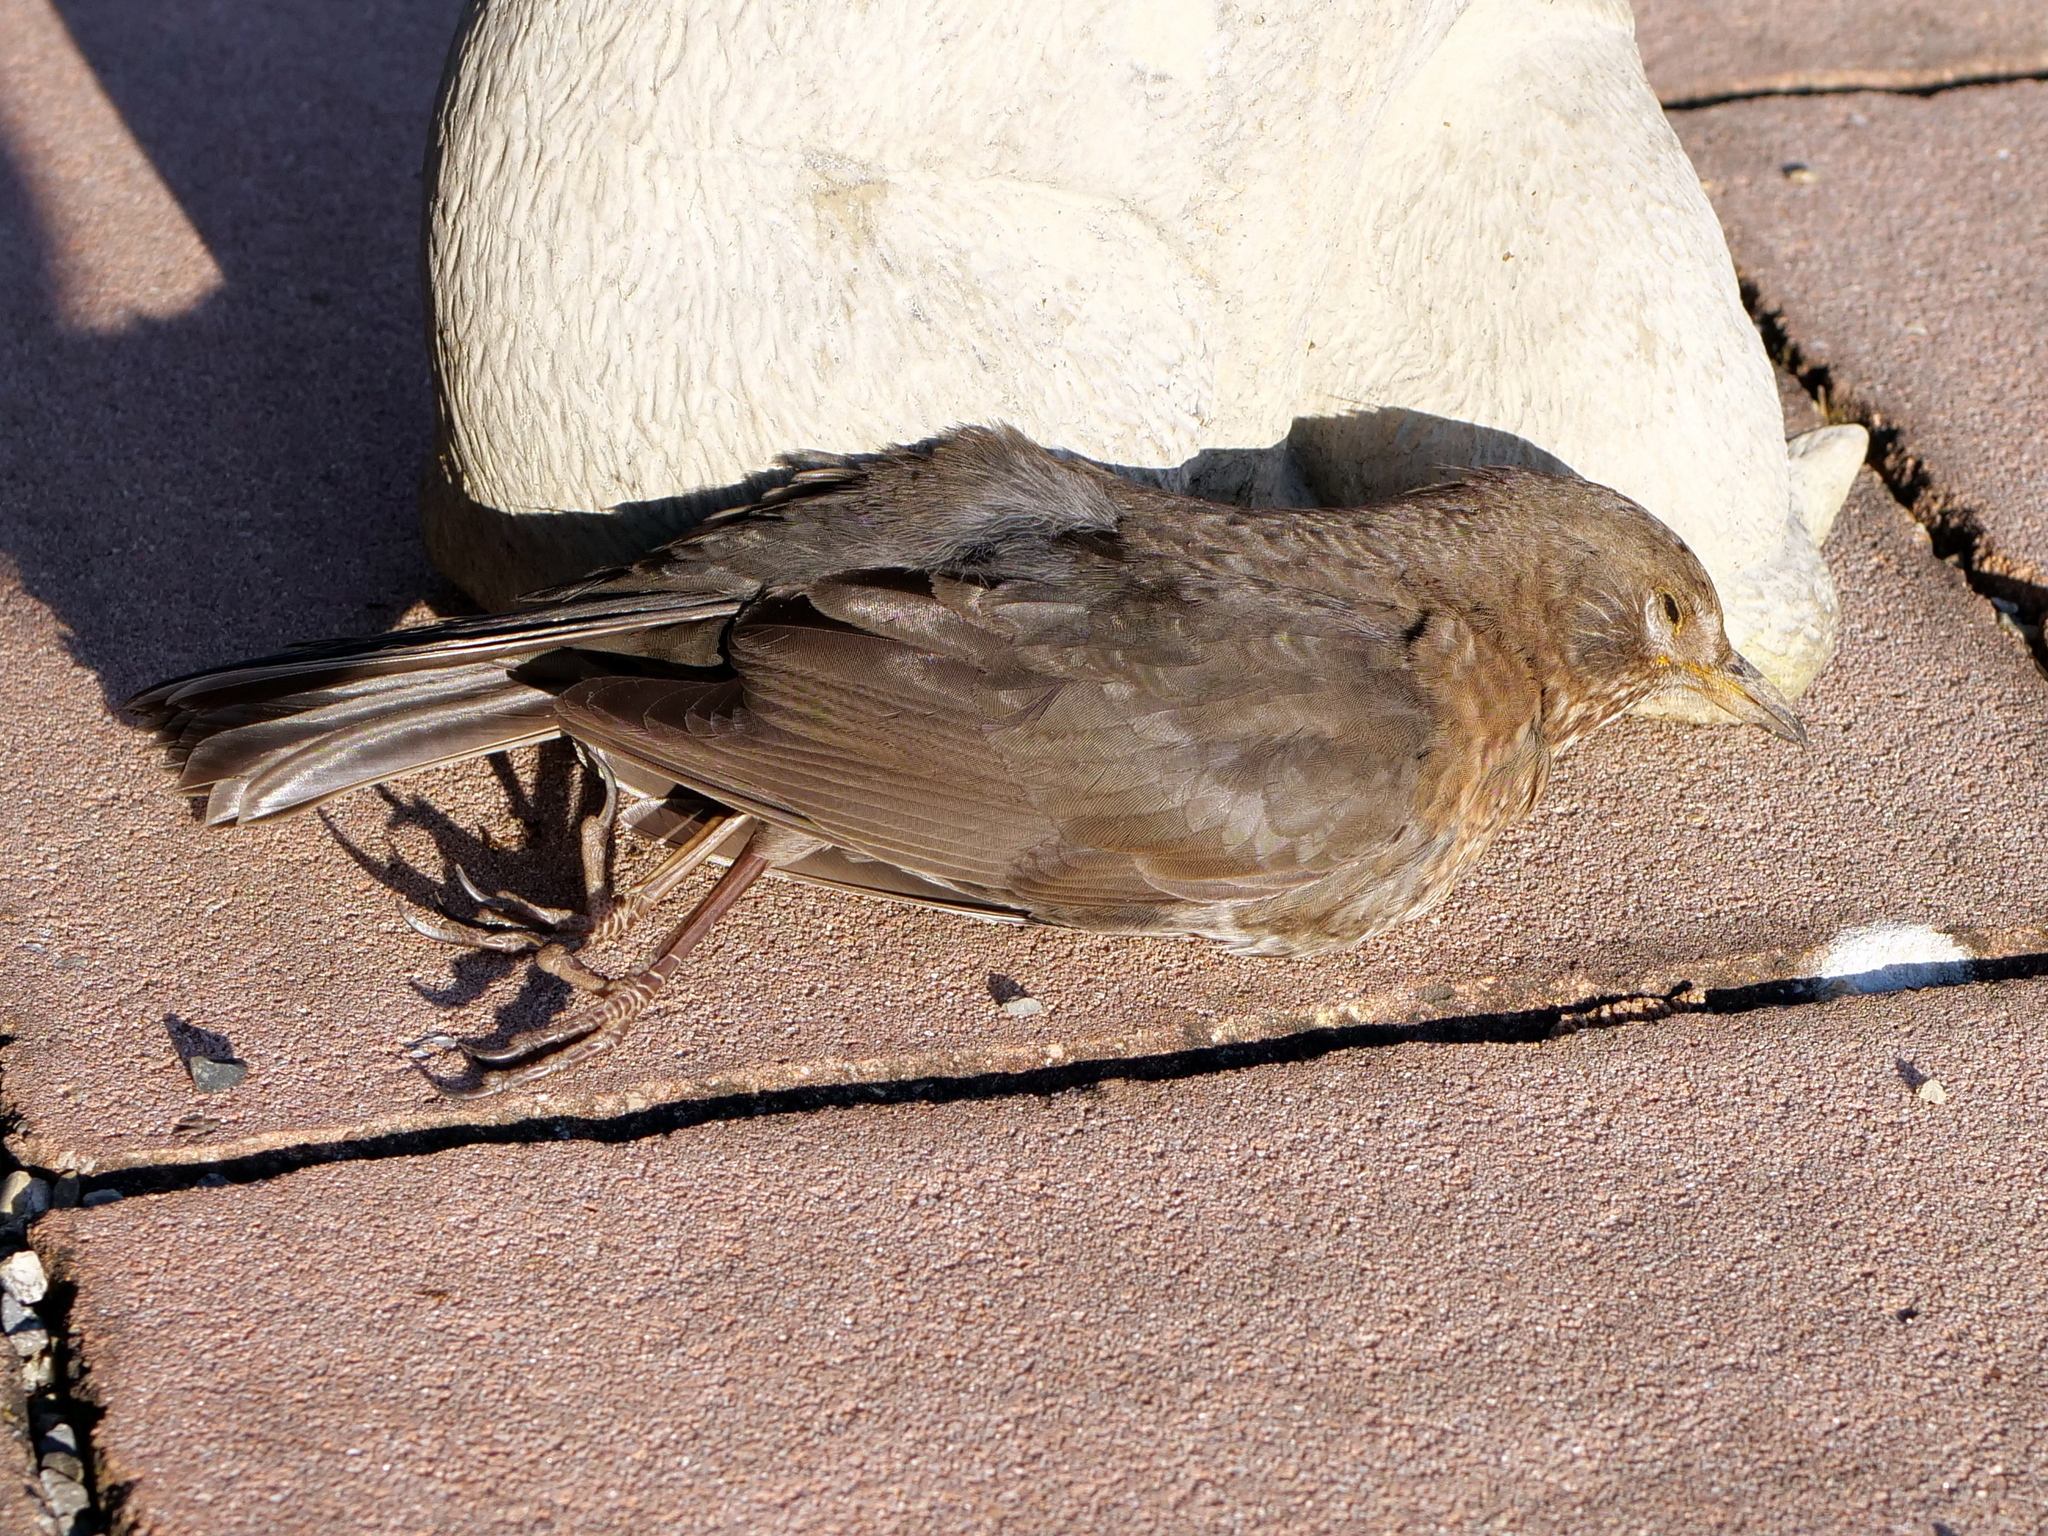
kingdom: Animalia
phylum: Chordata
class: Aves
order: Passeriformes
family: Turdidae
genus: Turdus
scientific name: Turdus merula
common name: Common blackbird
